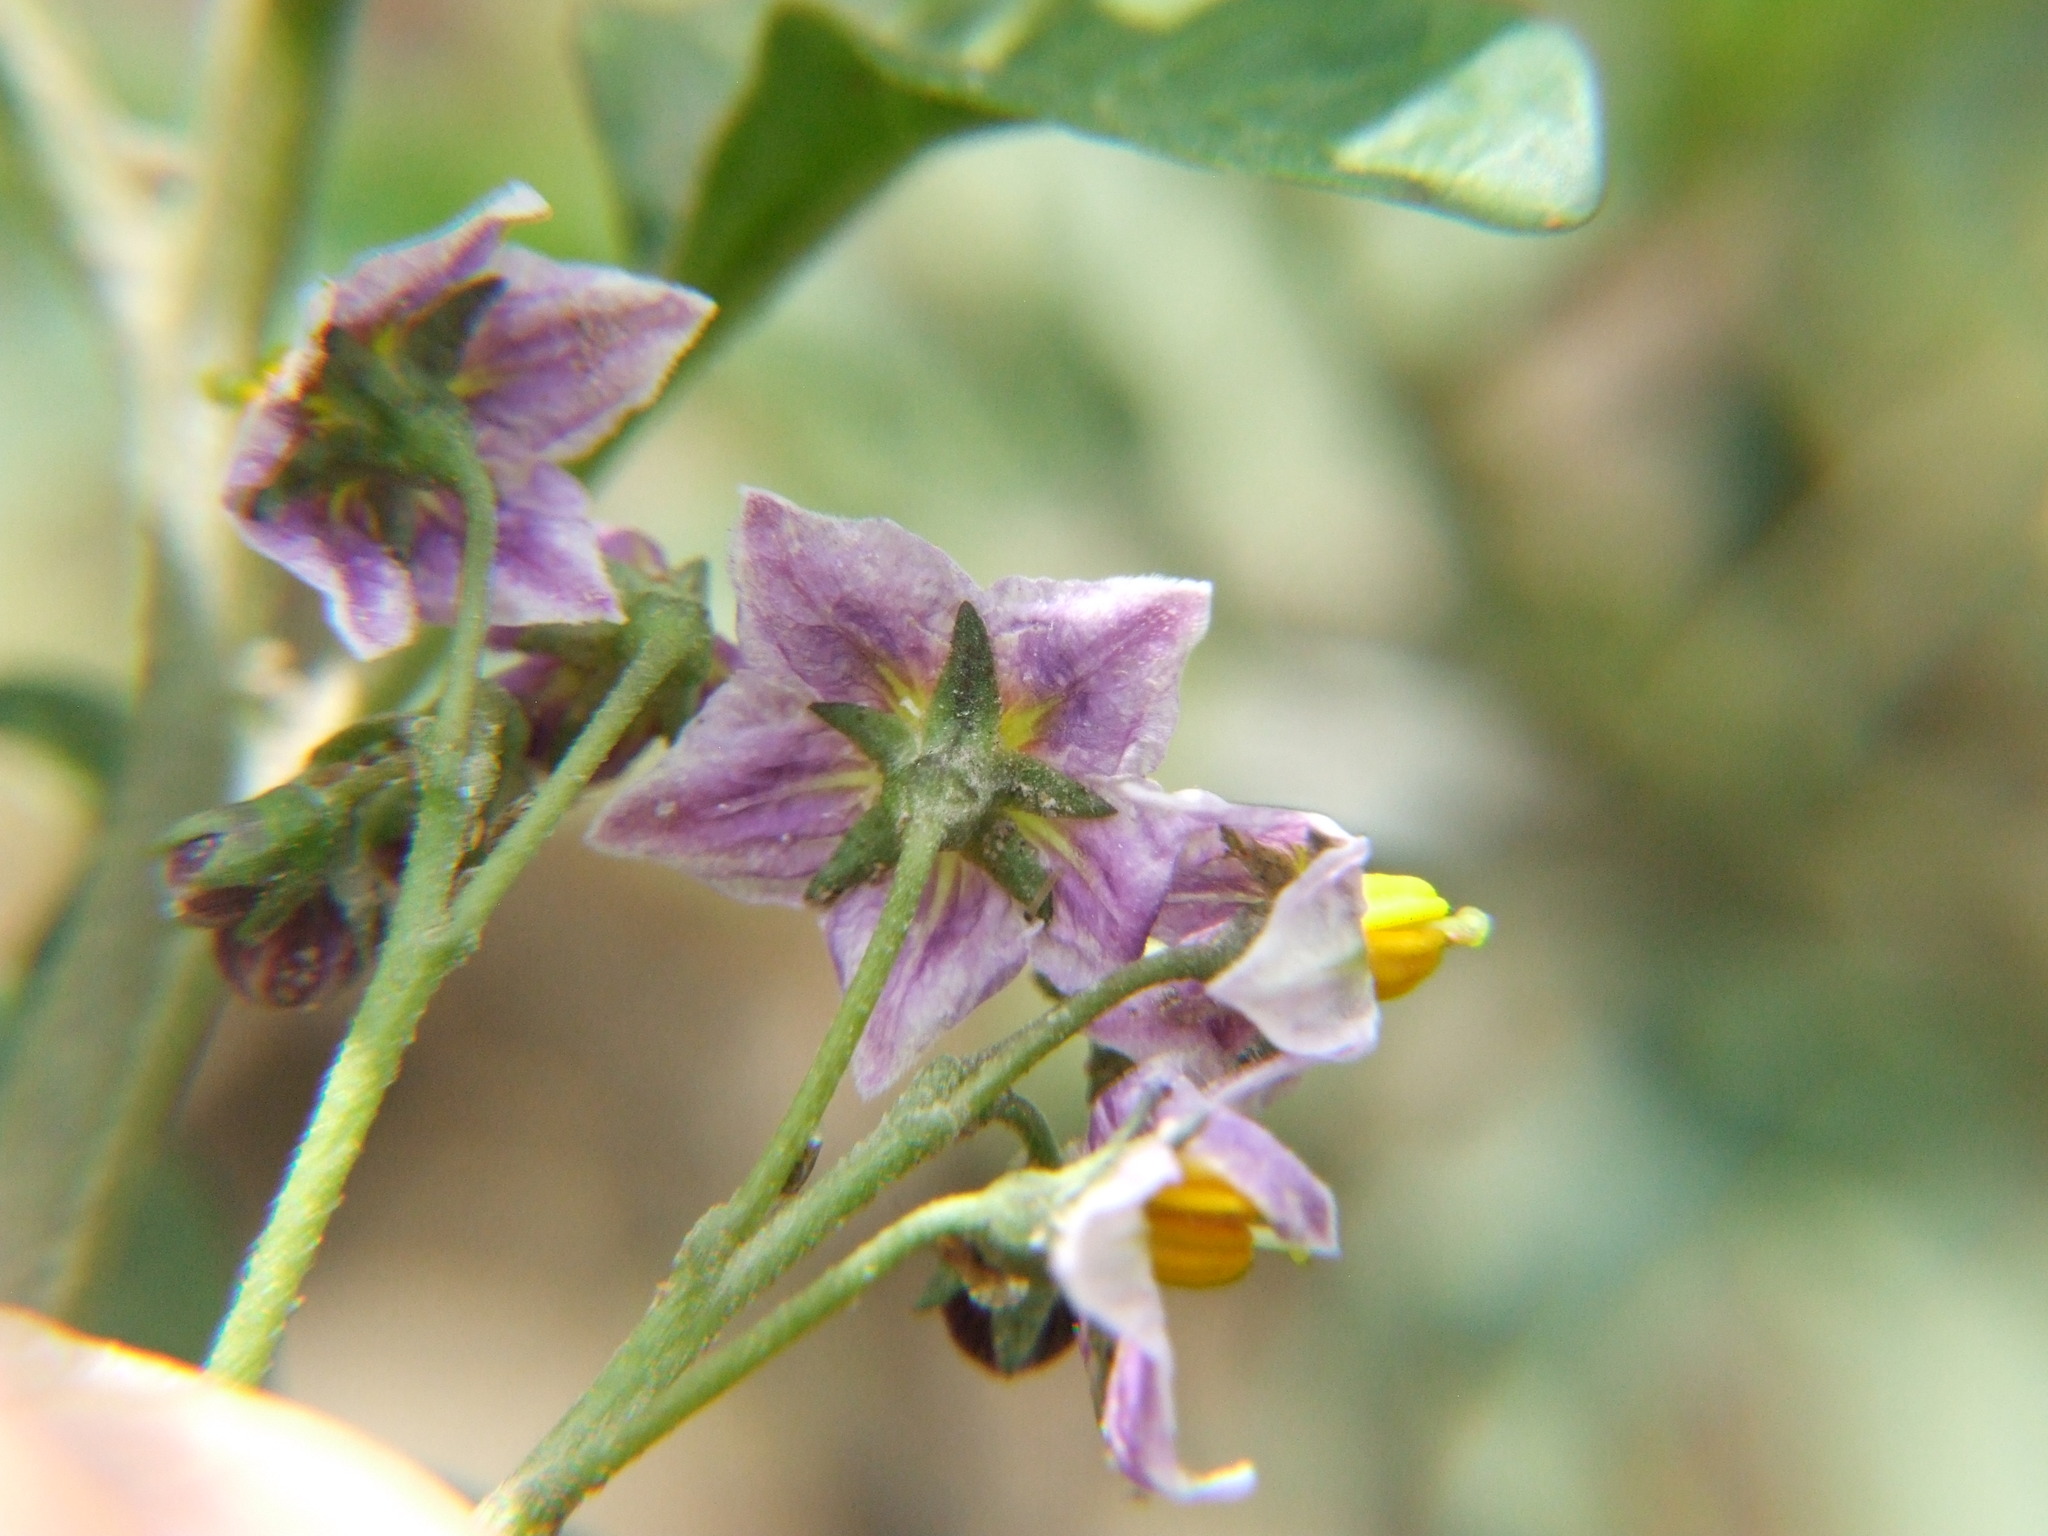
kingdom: Plantae
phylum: Tracheophyta
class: Magnoliopsida
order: Solanales
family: Solanaceae
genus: Solanum
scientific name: Solanum radicans
